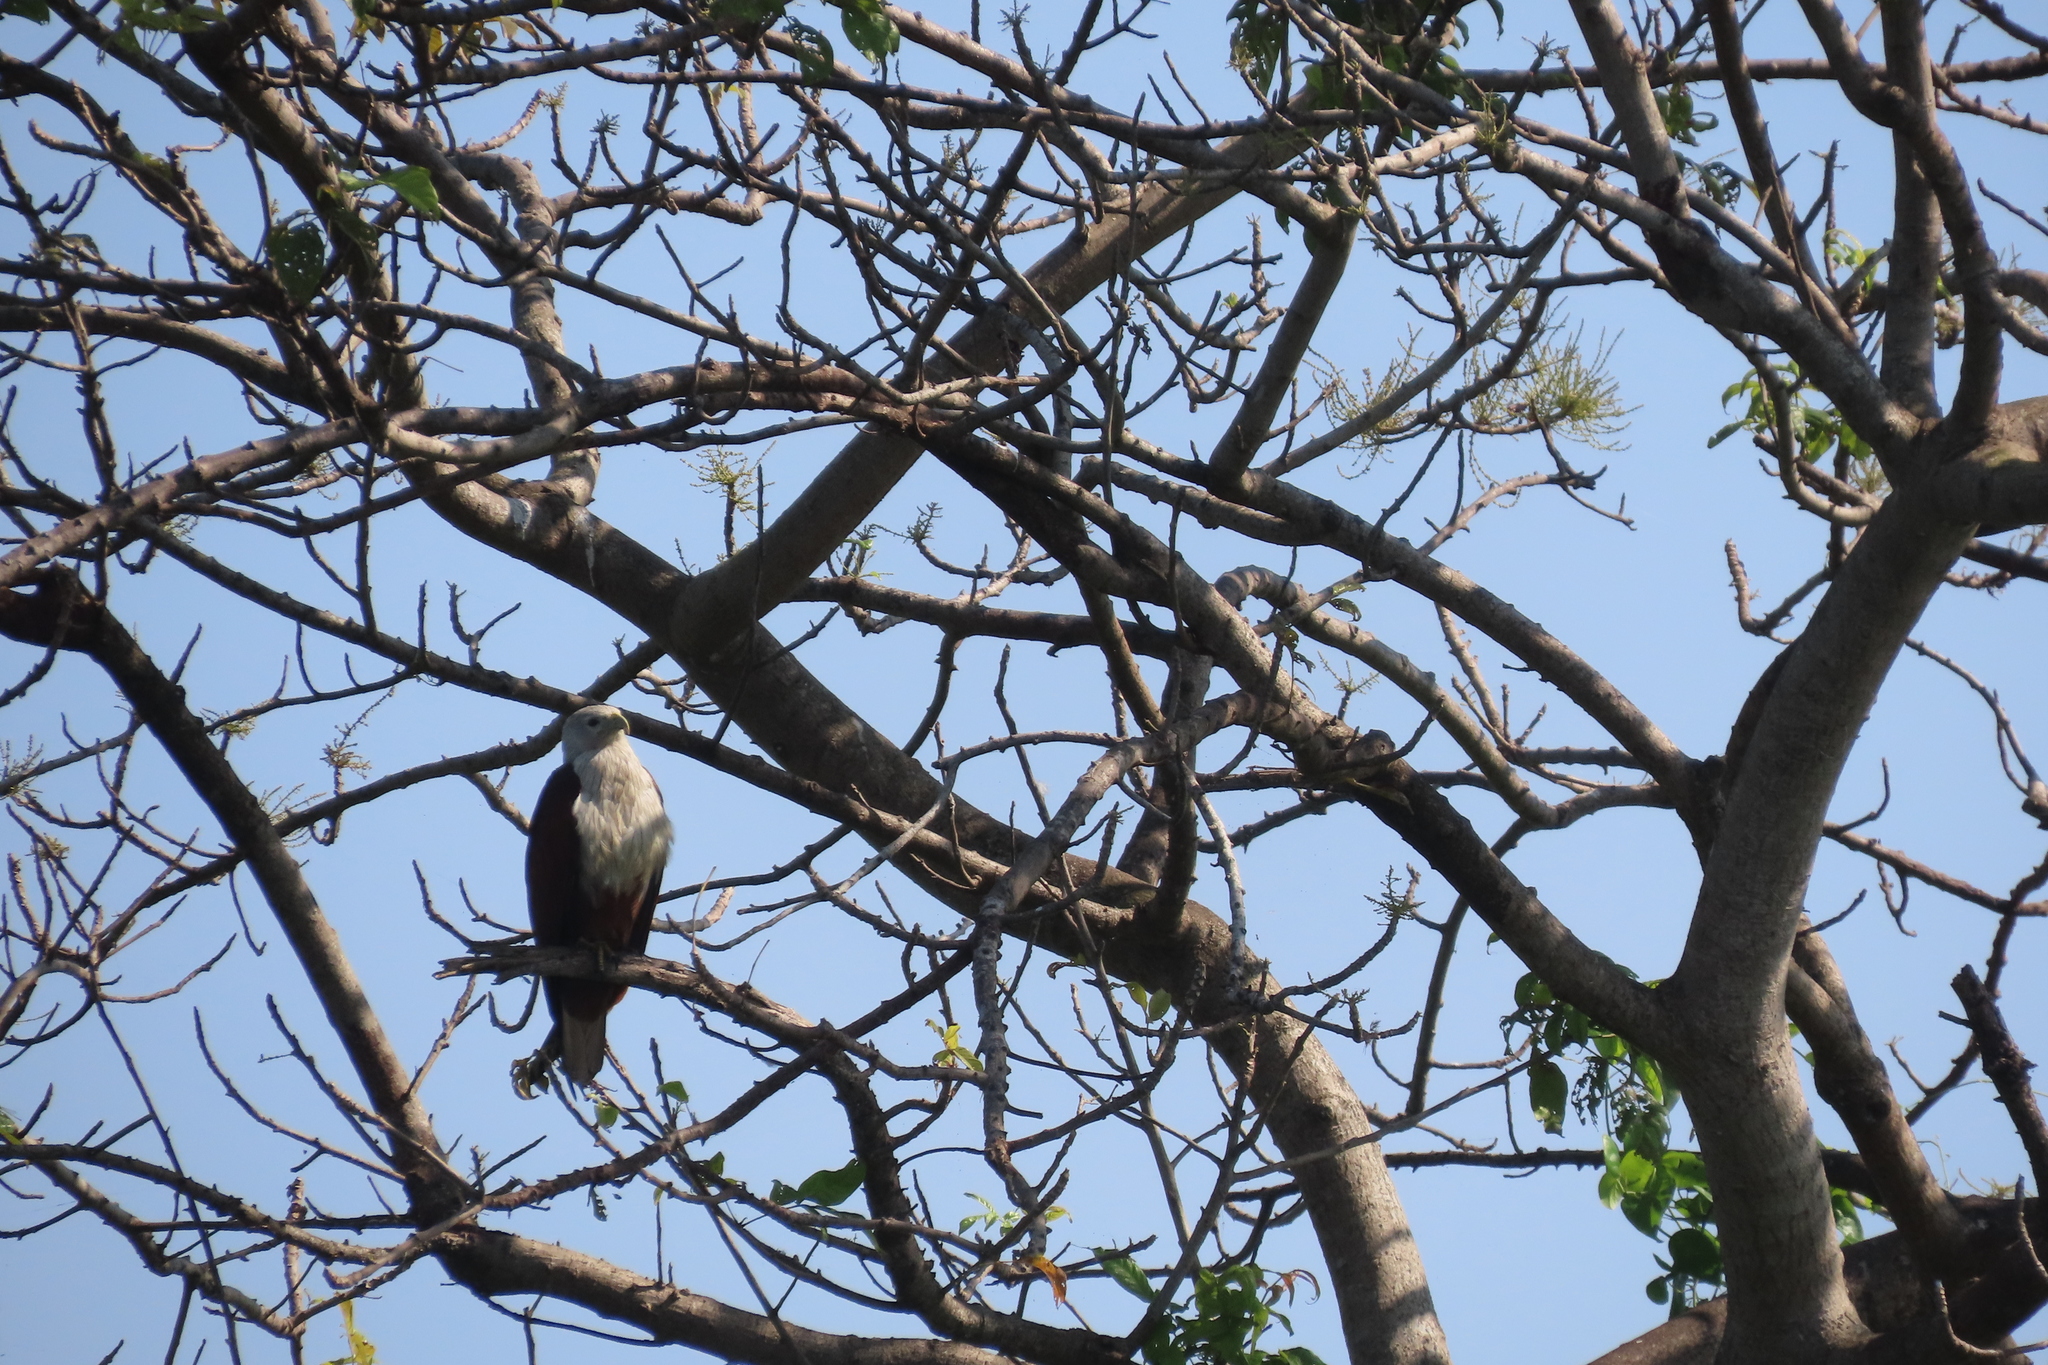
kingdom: Animalia
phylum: Chordata
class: Aves
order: Accipitriformes
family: Accipitridae
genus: Haliastur
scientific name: Haliastur indus
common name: Brahminy kite
